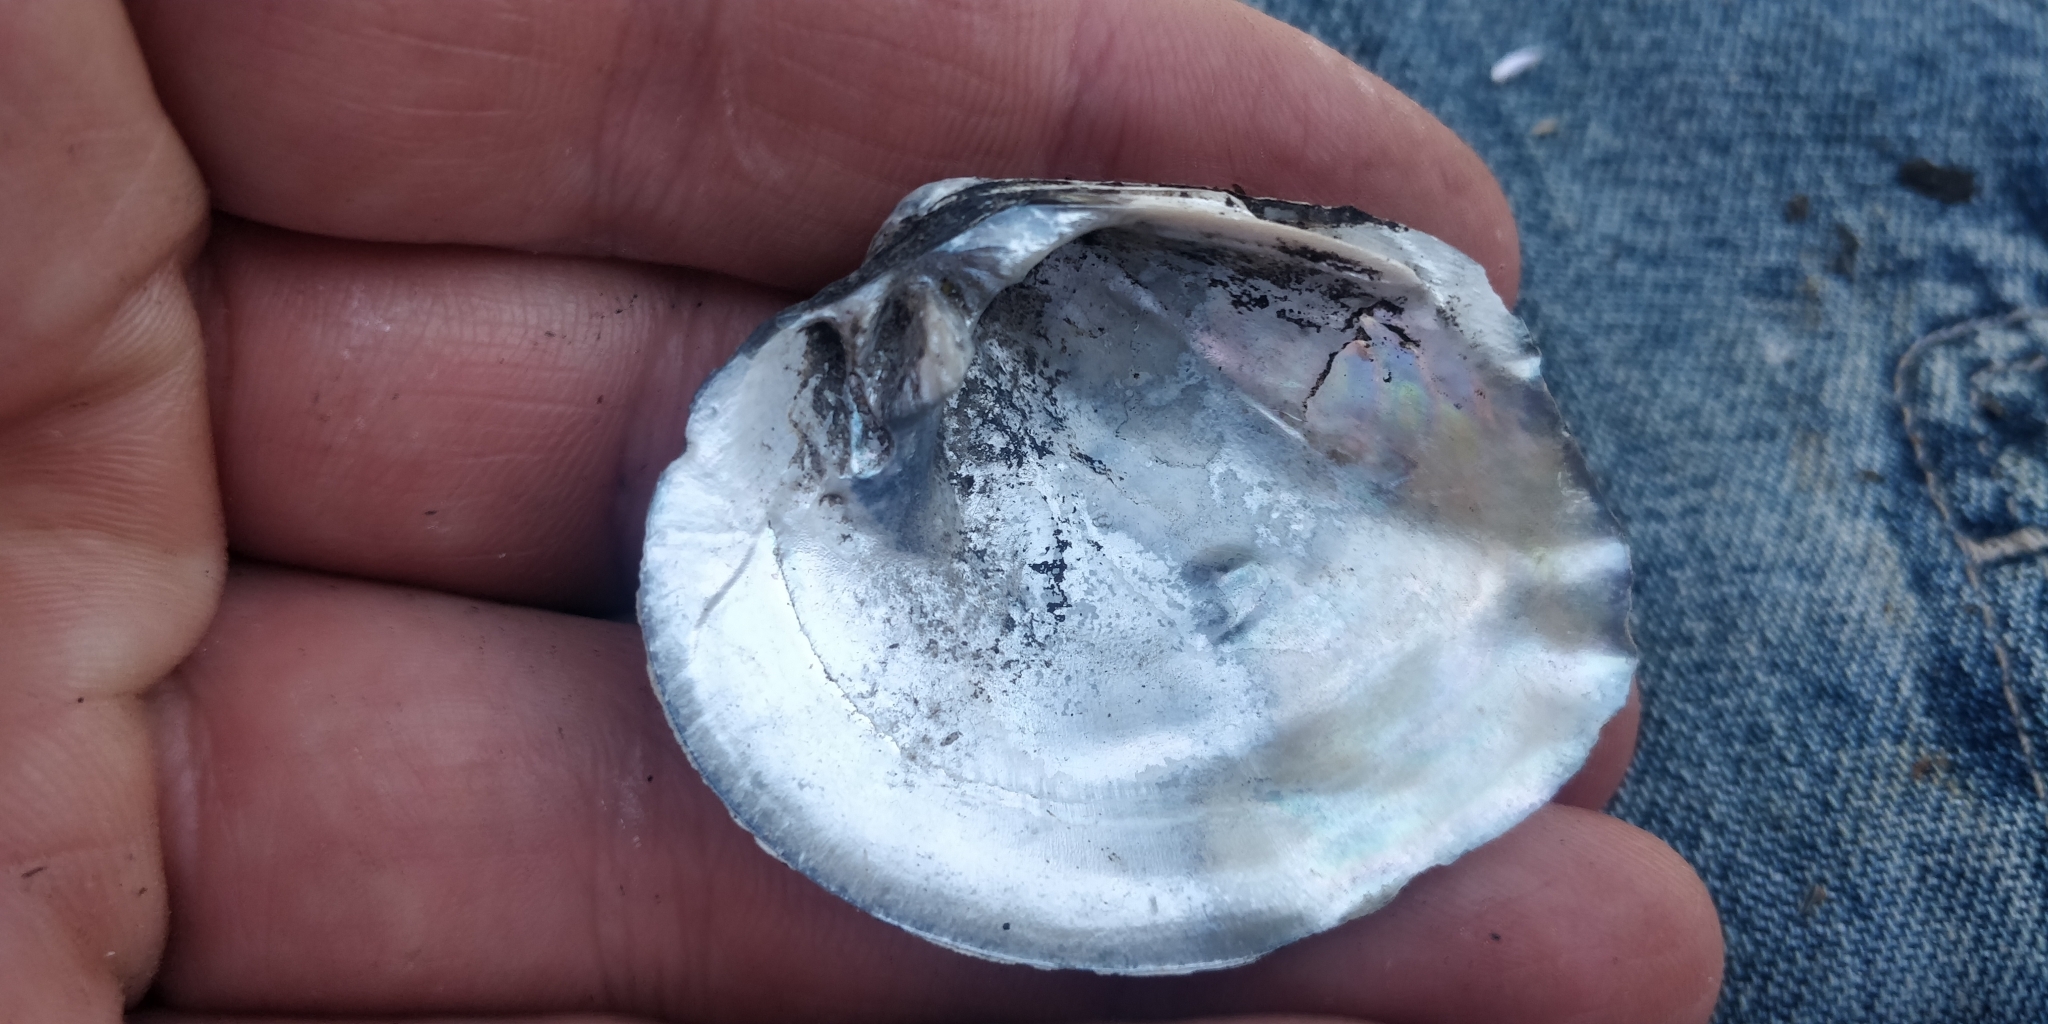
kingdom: Animalia
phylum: Mollusca
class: Bivalvia
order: Unionida
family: Unionidae
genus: Cyclonaias
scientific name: Cyclonaias pustulosa
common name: Pimpleback
